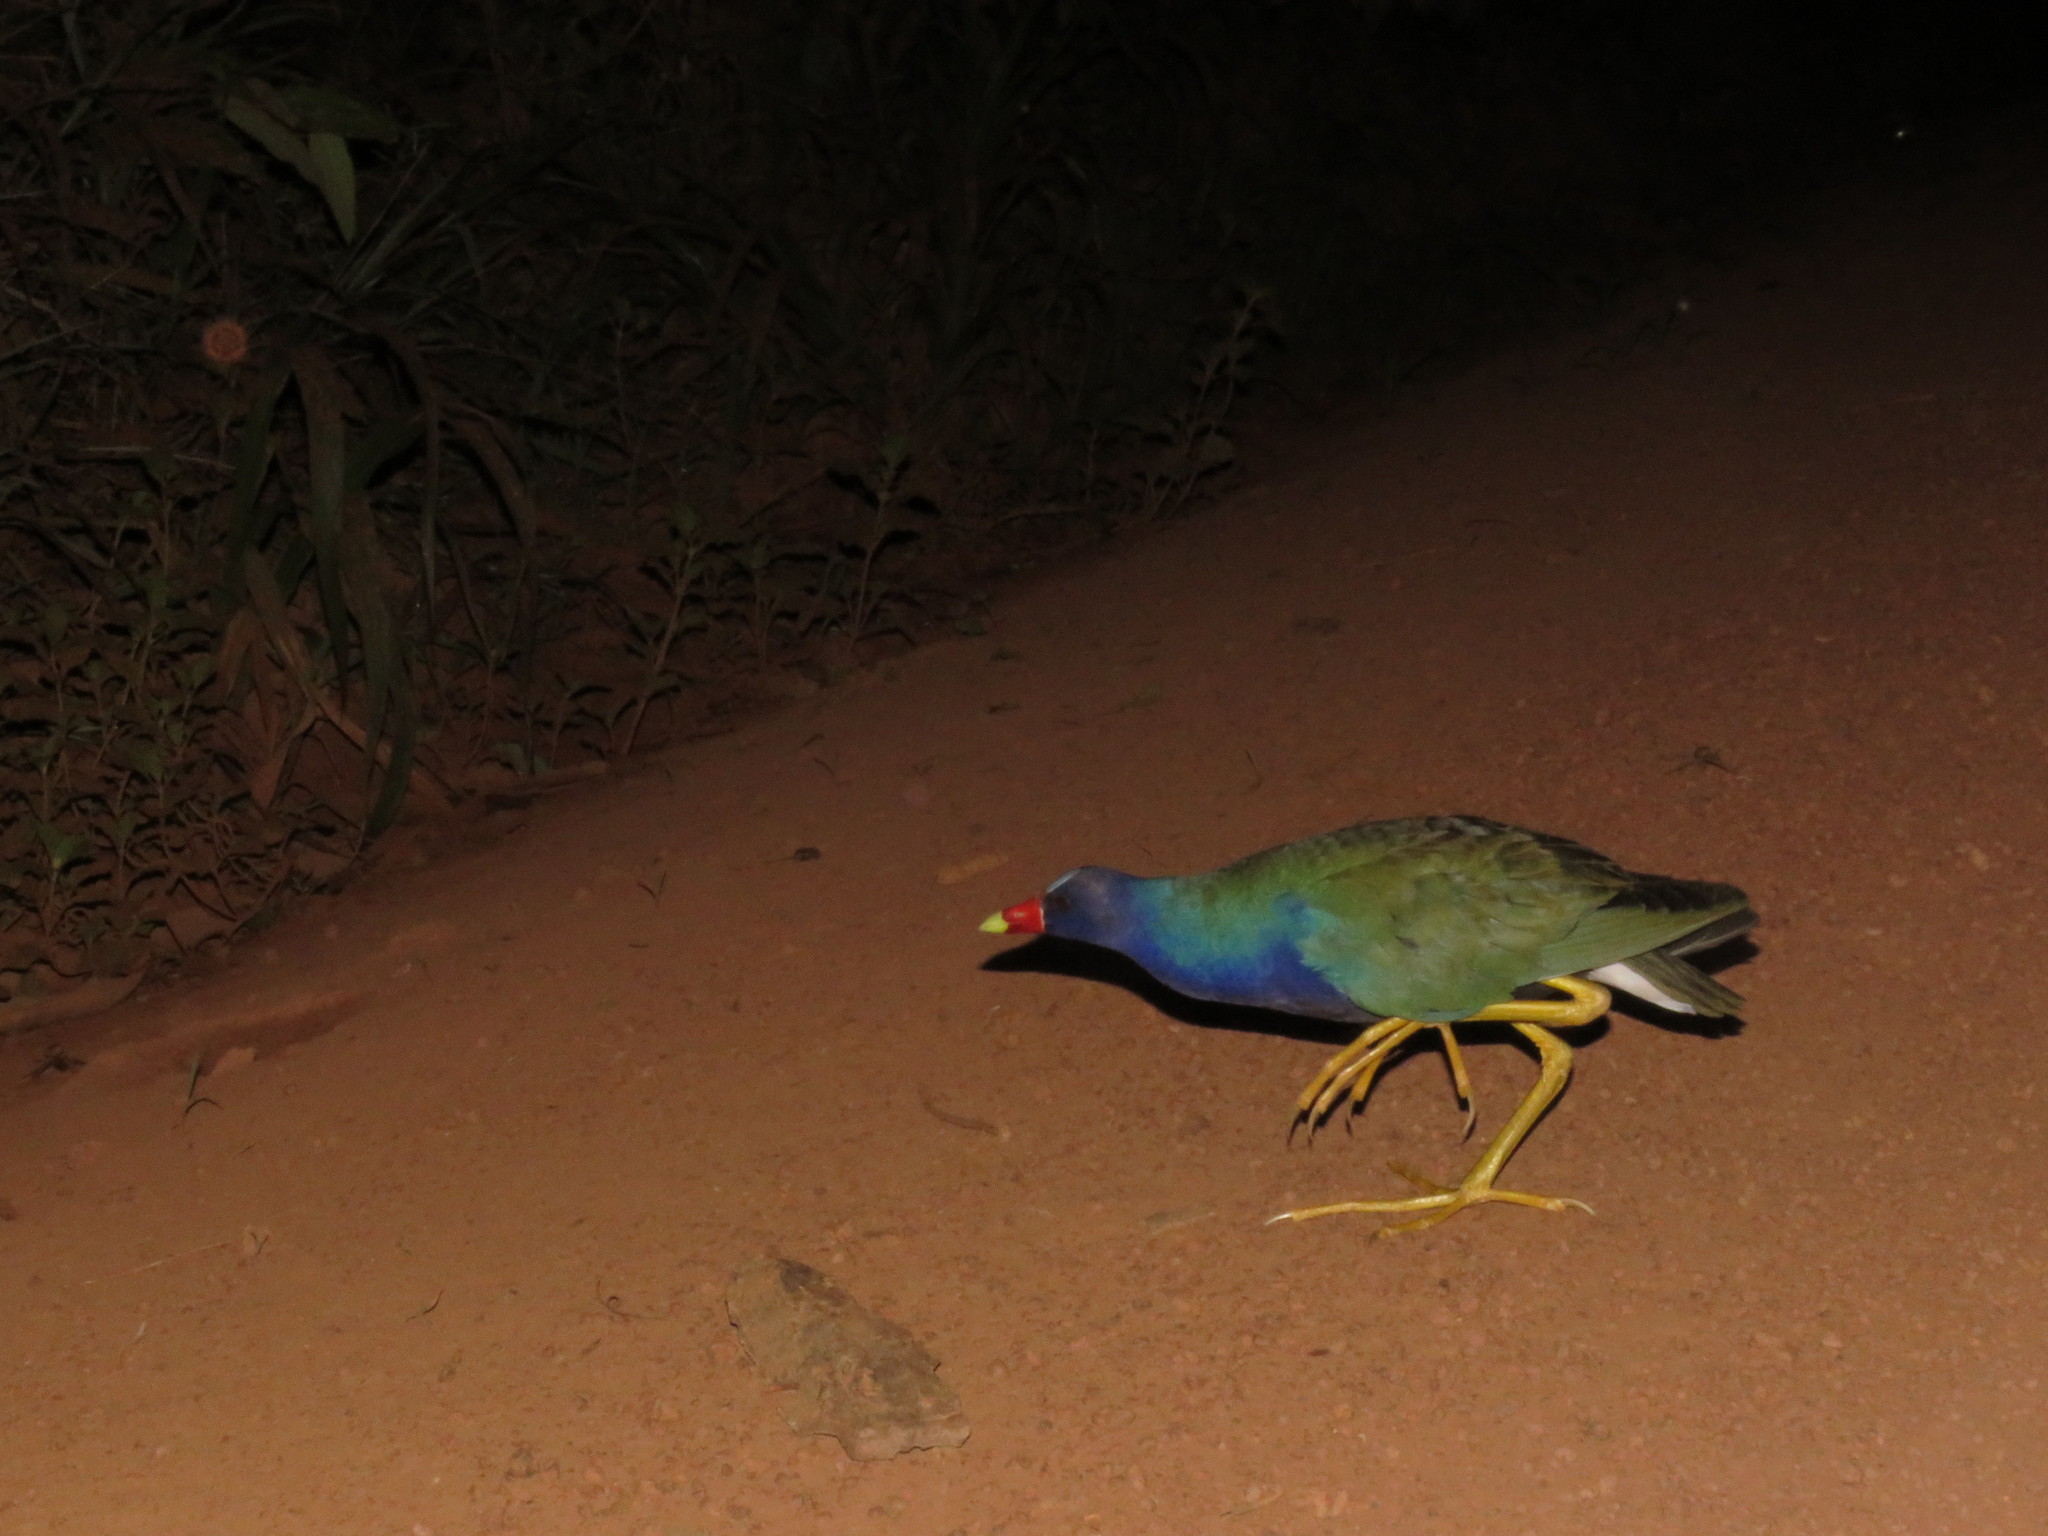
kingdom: Animalia
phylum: Chordata
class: Aves
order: Gruiformes
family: Rallidae
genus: Porphyrio
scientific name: Porphyrio martinica
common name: Purple gallinule
